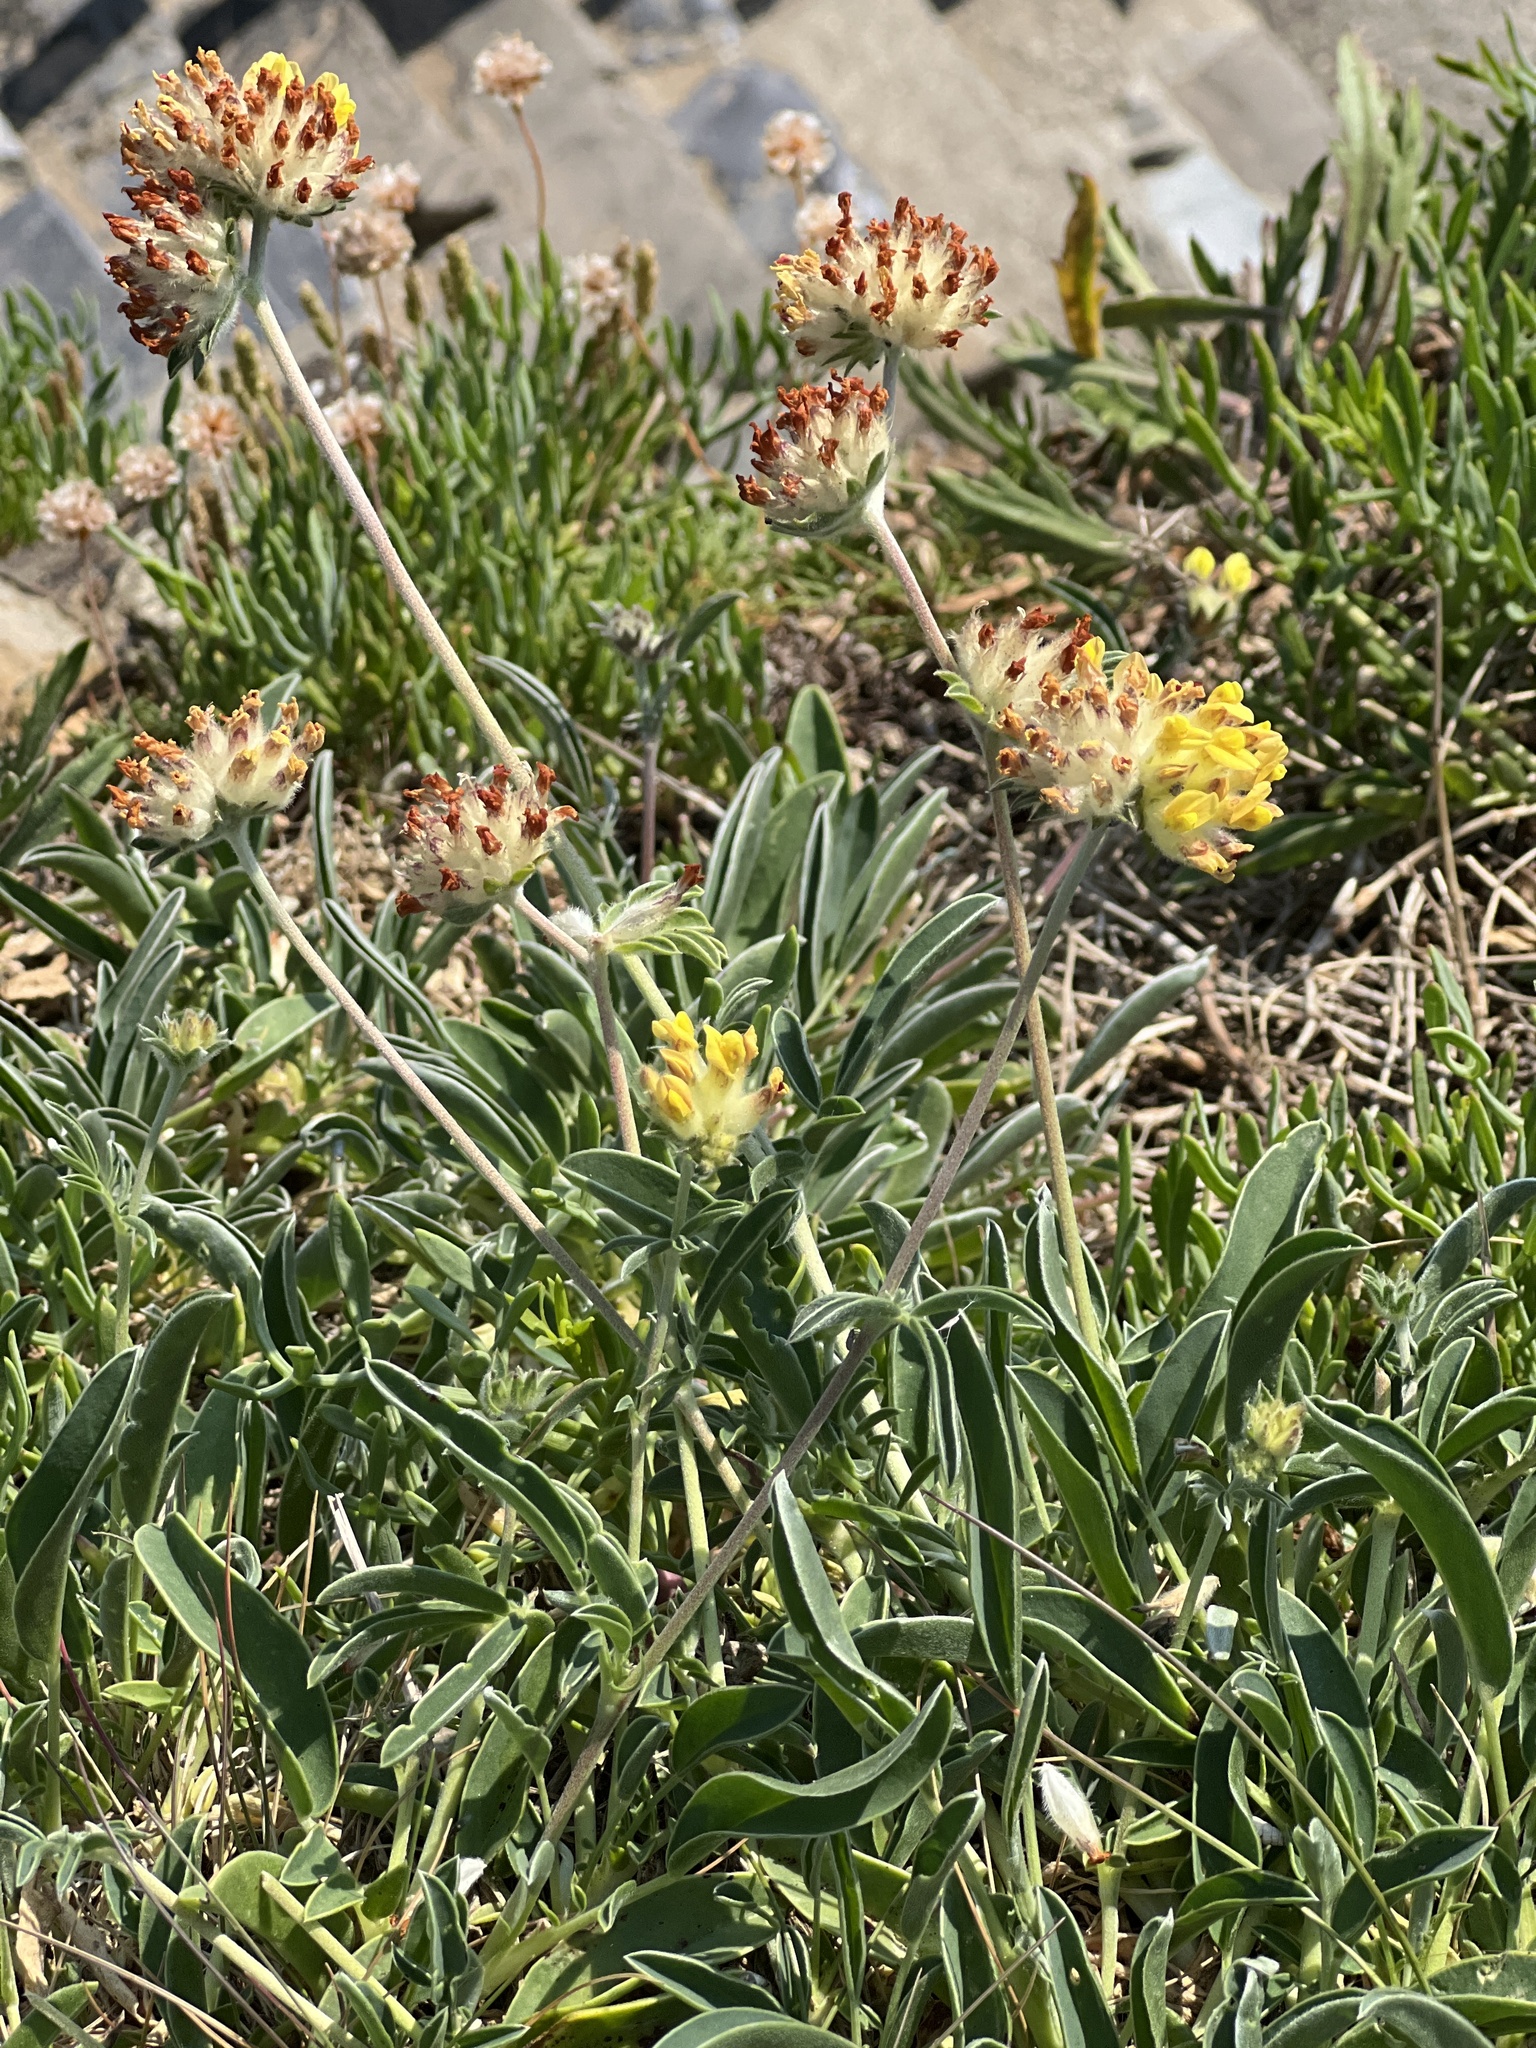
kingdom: Plantae
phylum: Tracheophyta
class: Magnoliopsida
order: Fabales
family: Fabaceae
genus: Anthyllis
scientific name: Anthyllis vulneraria
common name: Kidney vetch
